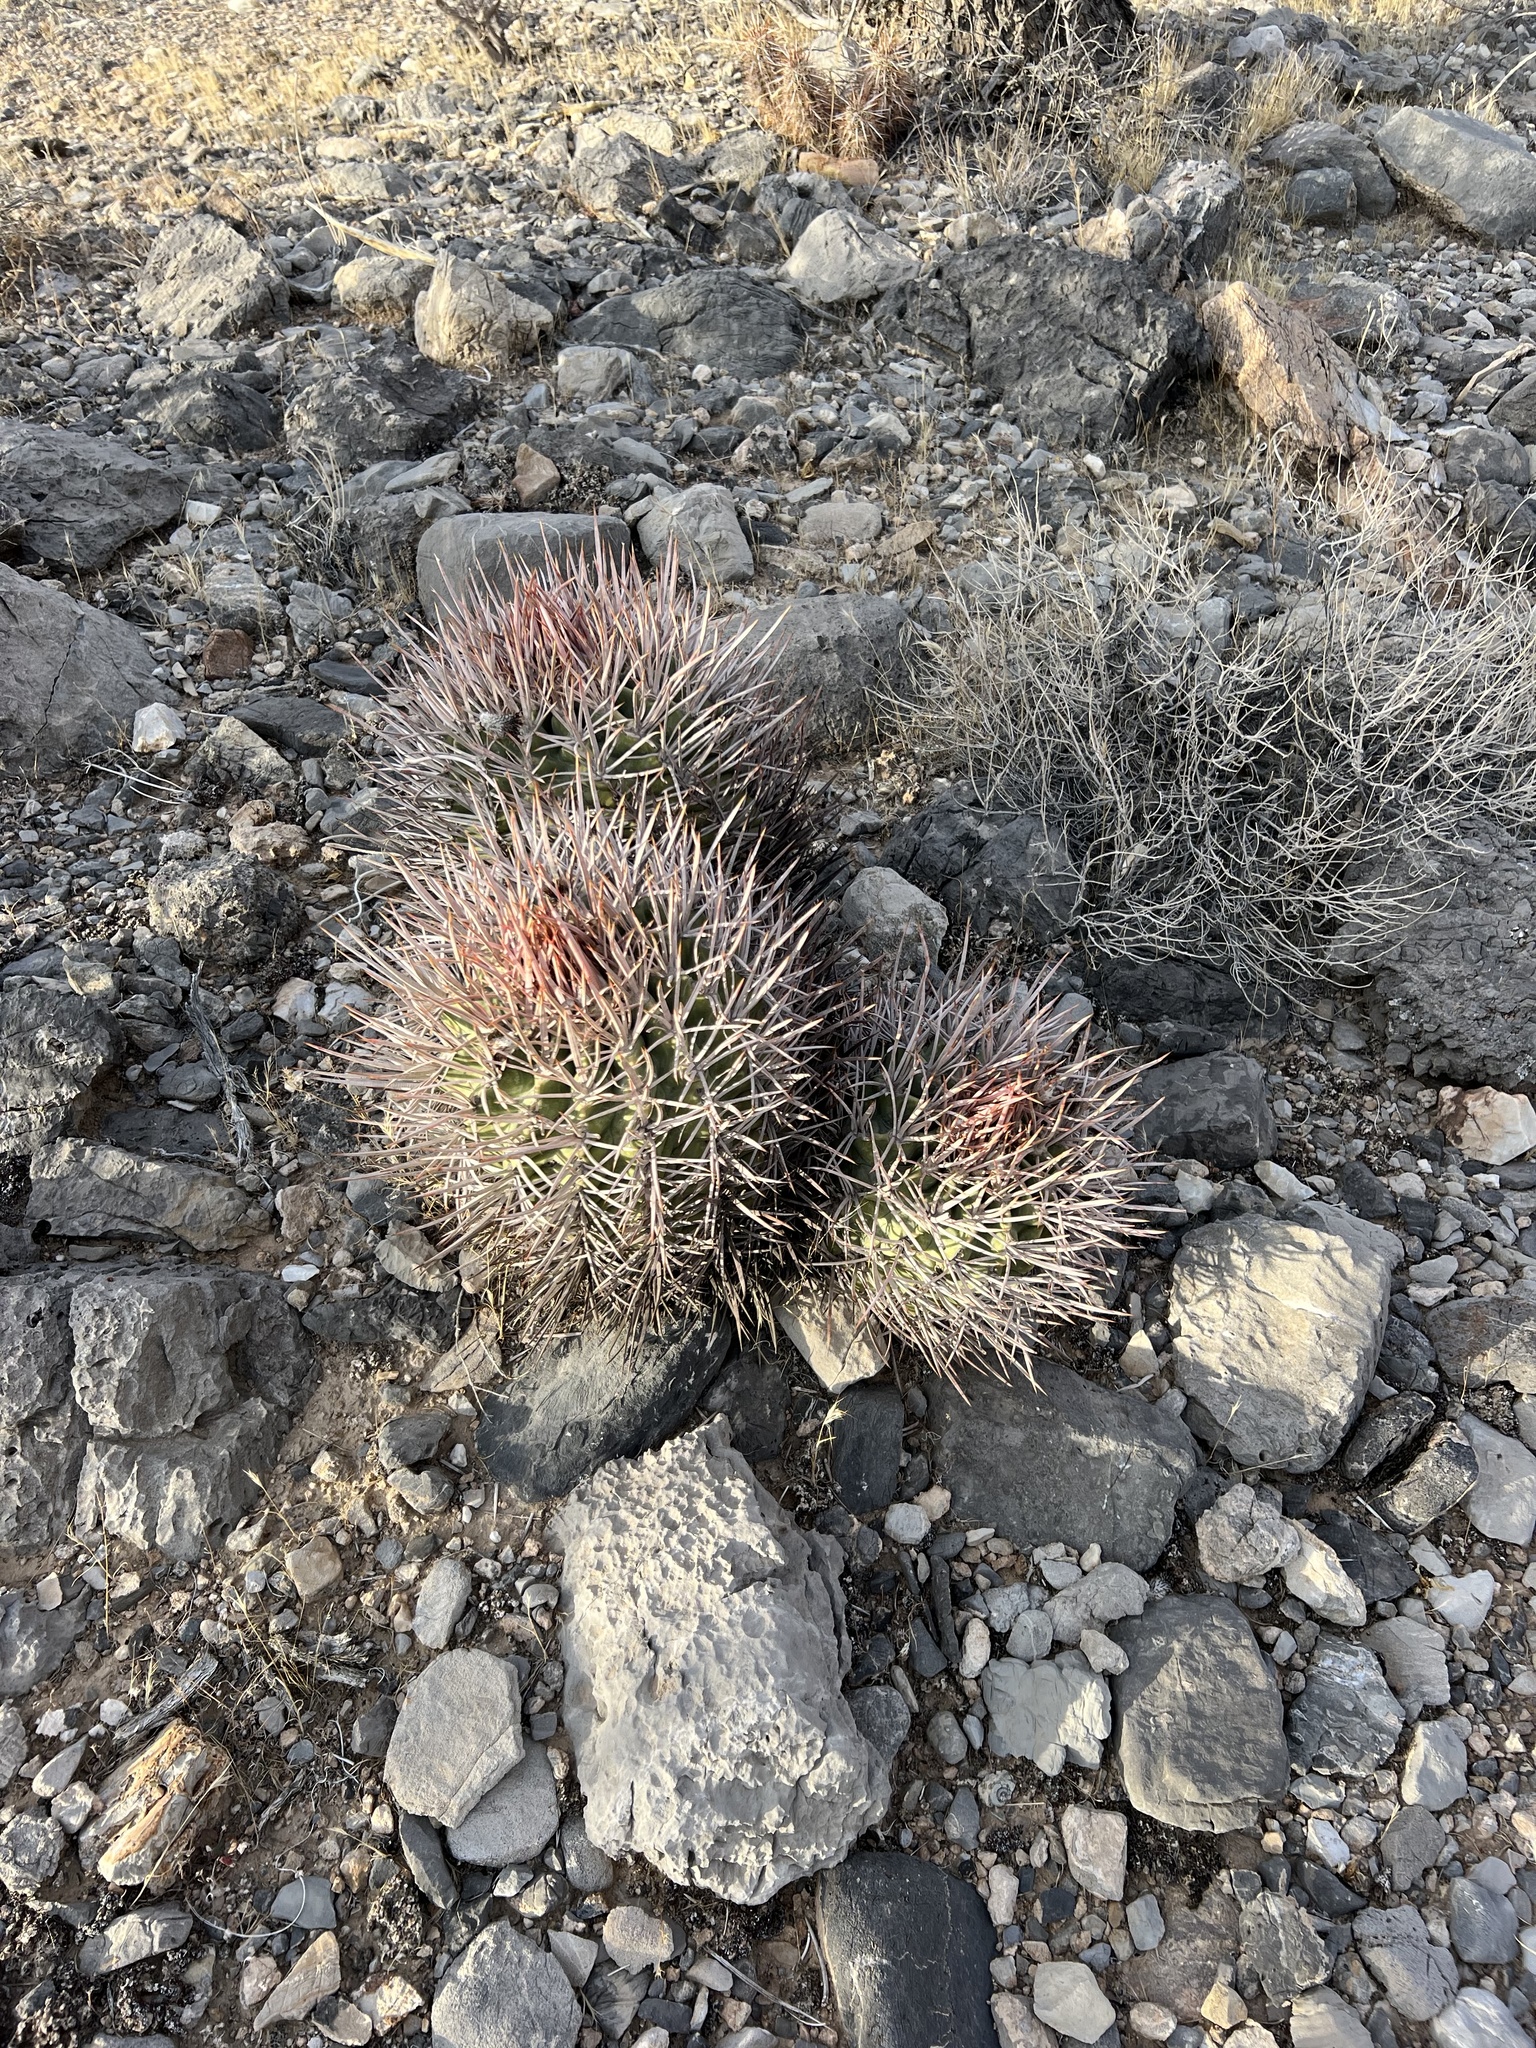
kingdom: Plantae
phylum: Tracheophyta
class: Magnoliopsida
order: Caryophyllales
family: Cactaceae
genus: Echinocactus
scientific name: Echinocactus polycephalus
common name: Cottontop cactus
